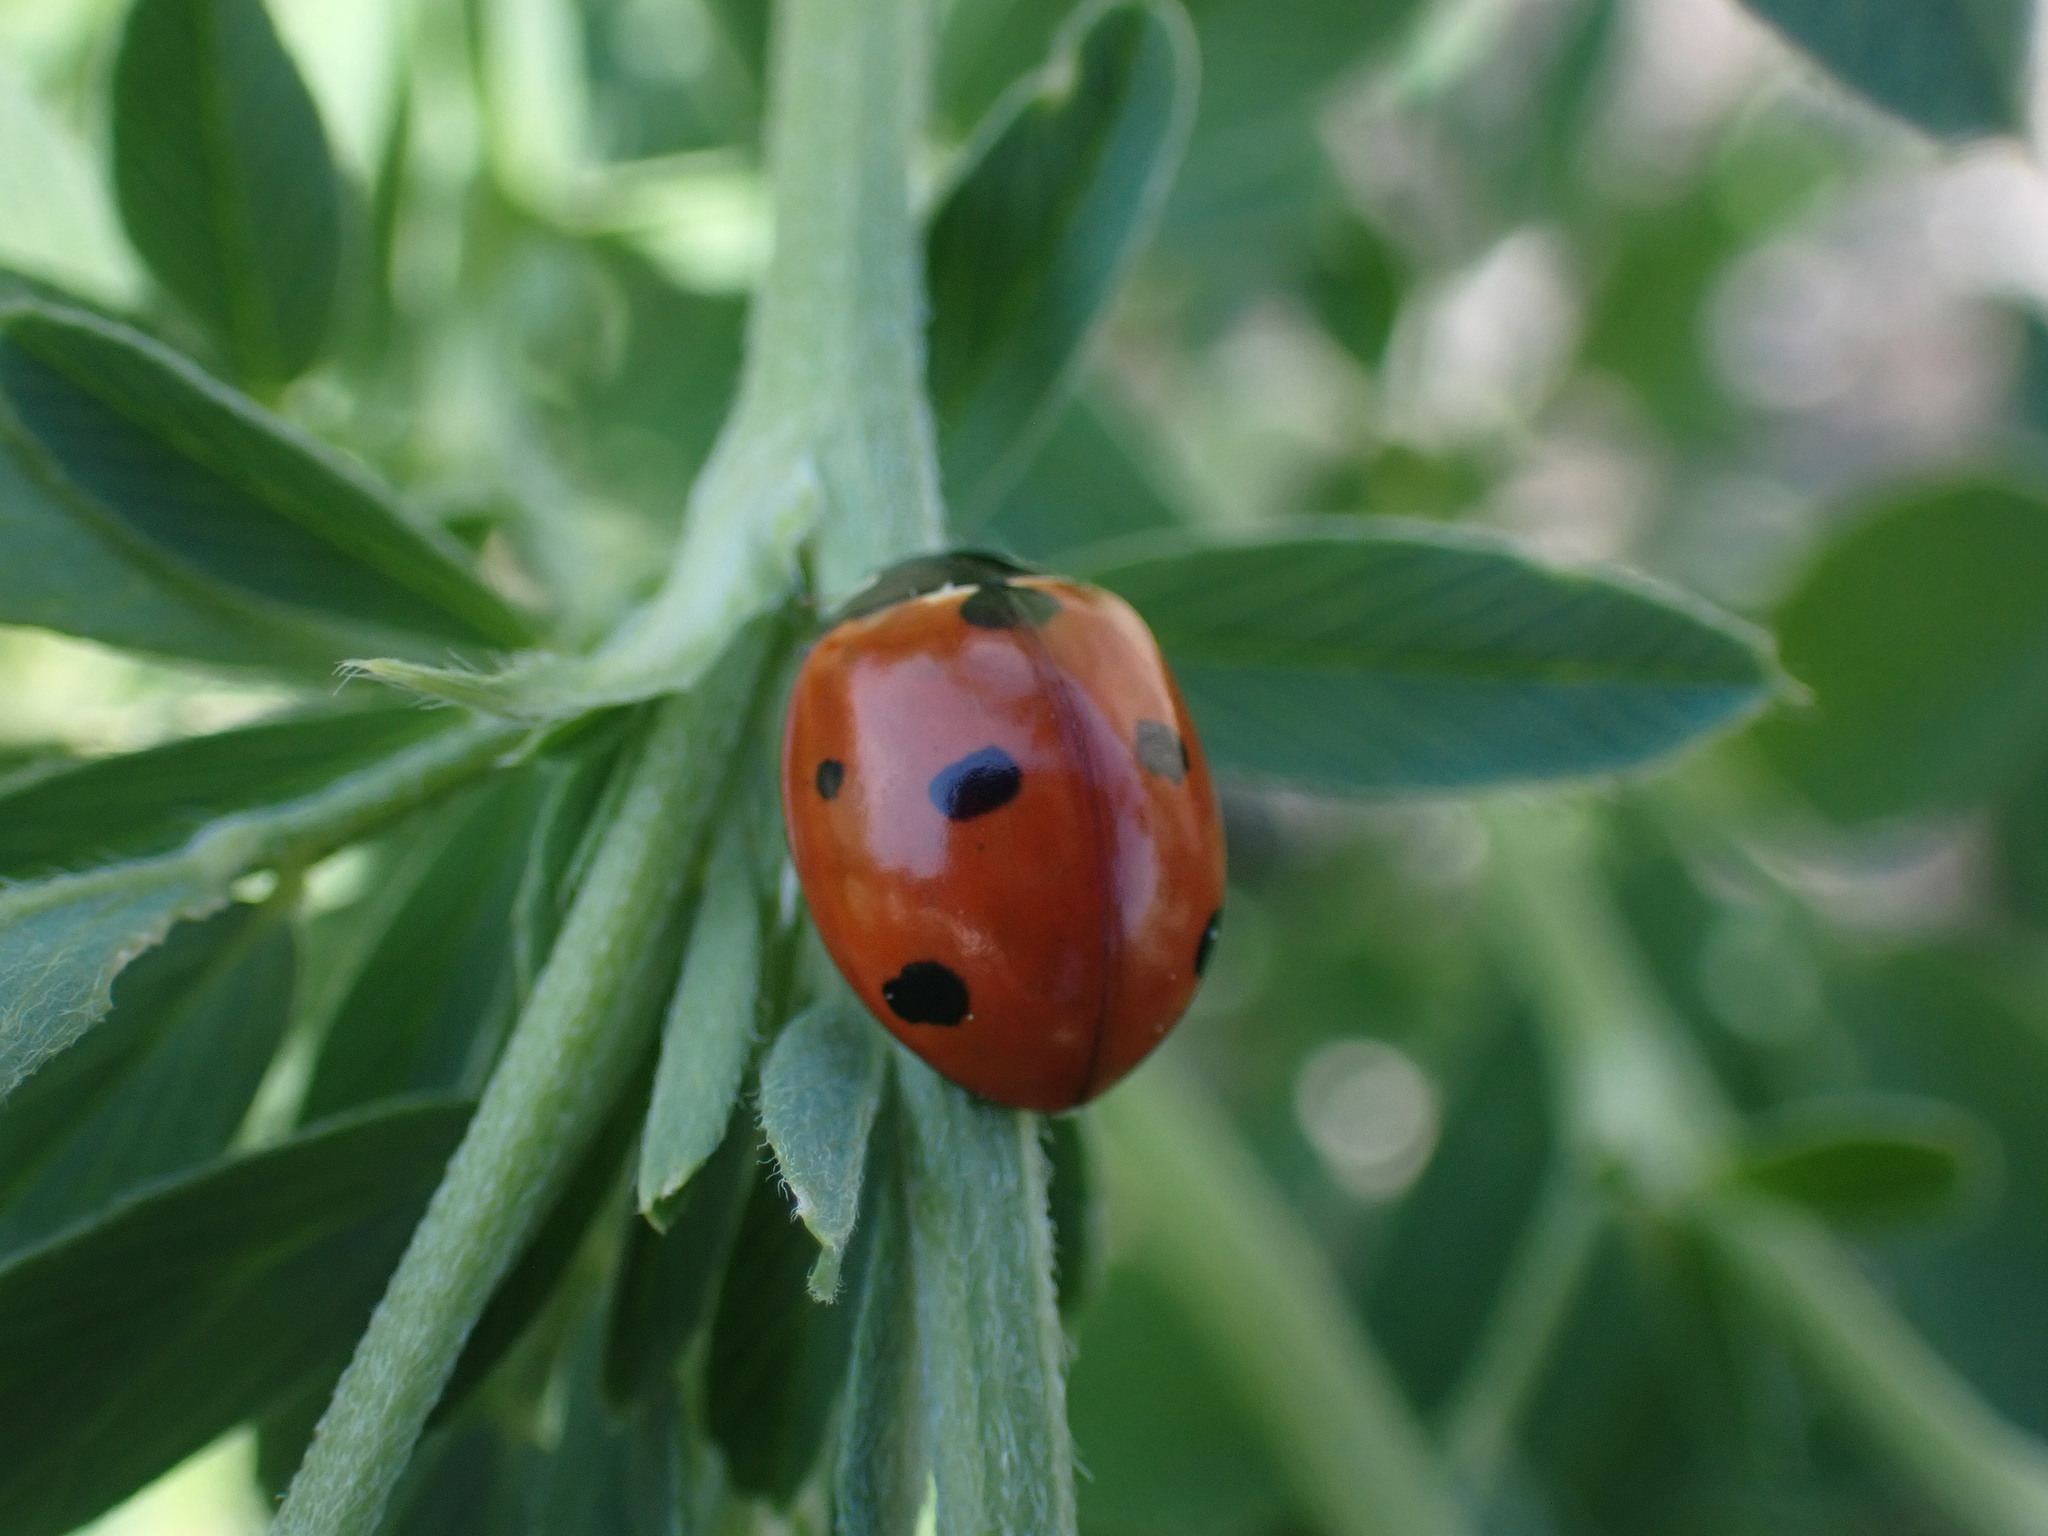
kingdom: Animalia
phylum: Arthropoda
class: Insecta
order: Coleoptera
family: Coccinellidae
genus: Coccinella
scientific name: Coccinella septempunctata
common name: Sevenspotted lady beetle
